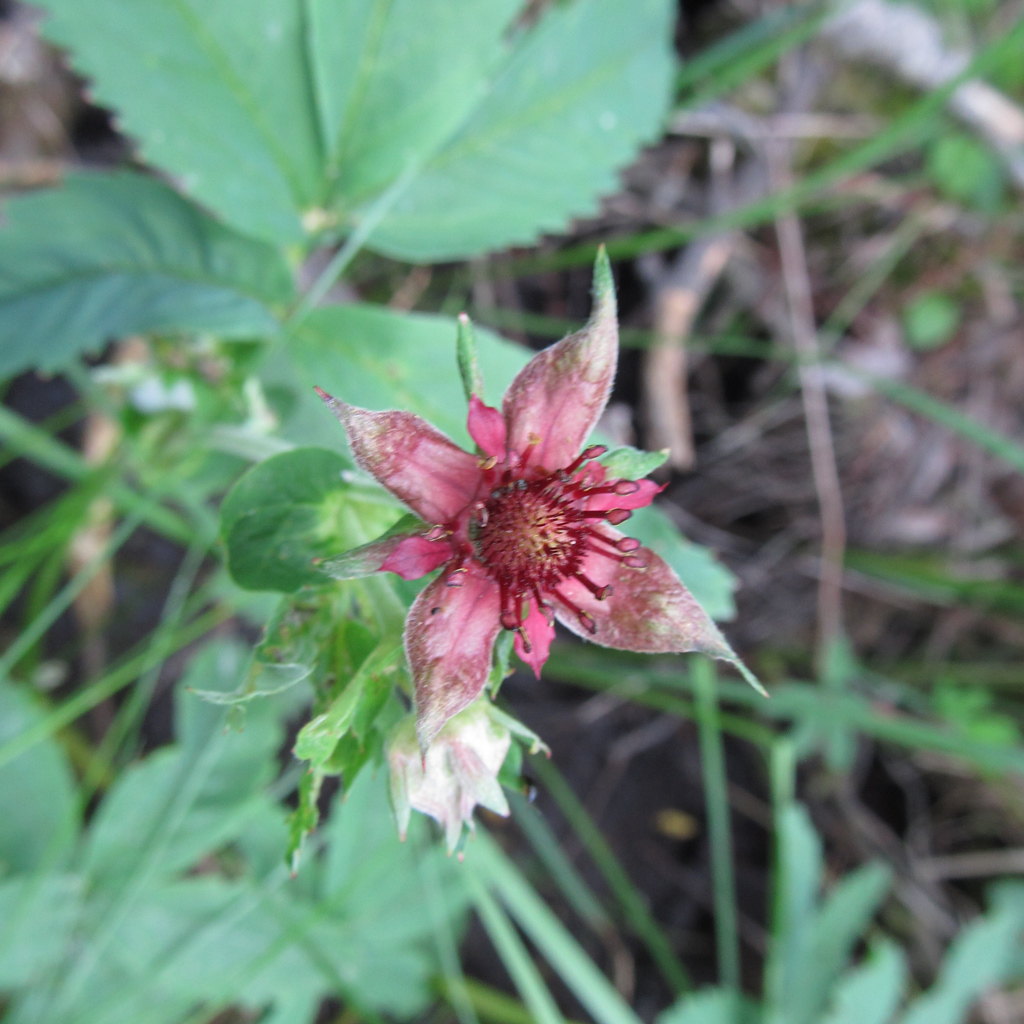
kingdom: Plantae
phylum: Tracheophyta
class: Magnoliopsida
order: Rosales
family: Rosaceae
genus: Comarum
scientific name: Comarum palustre
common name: Marsh cinquefoil
